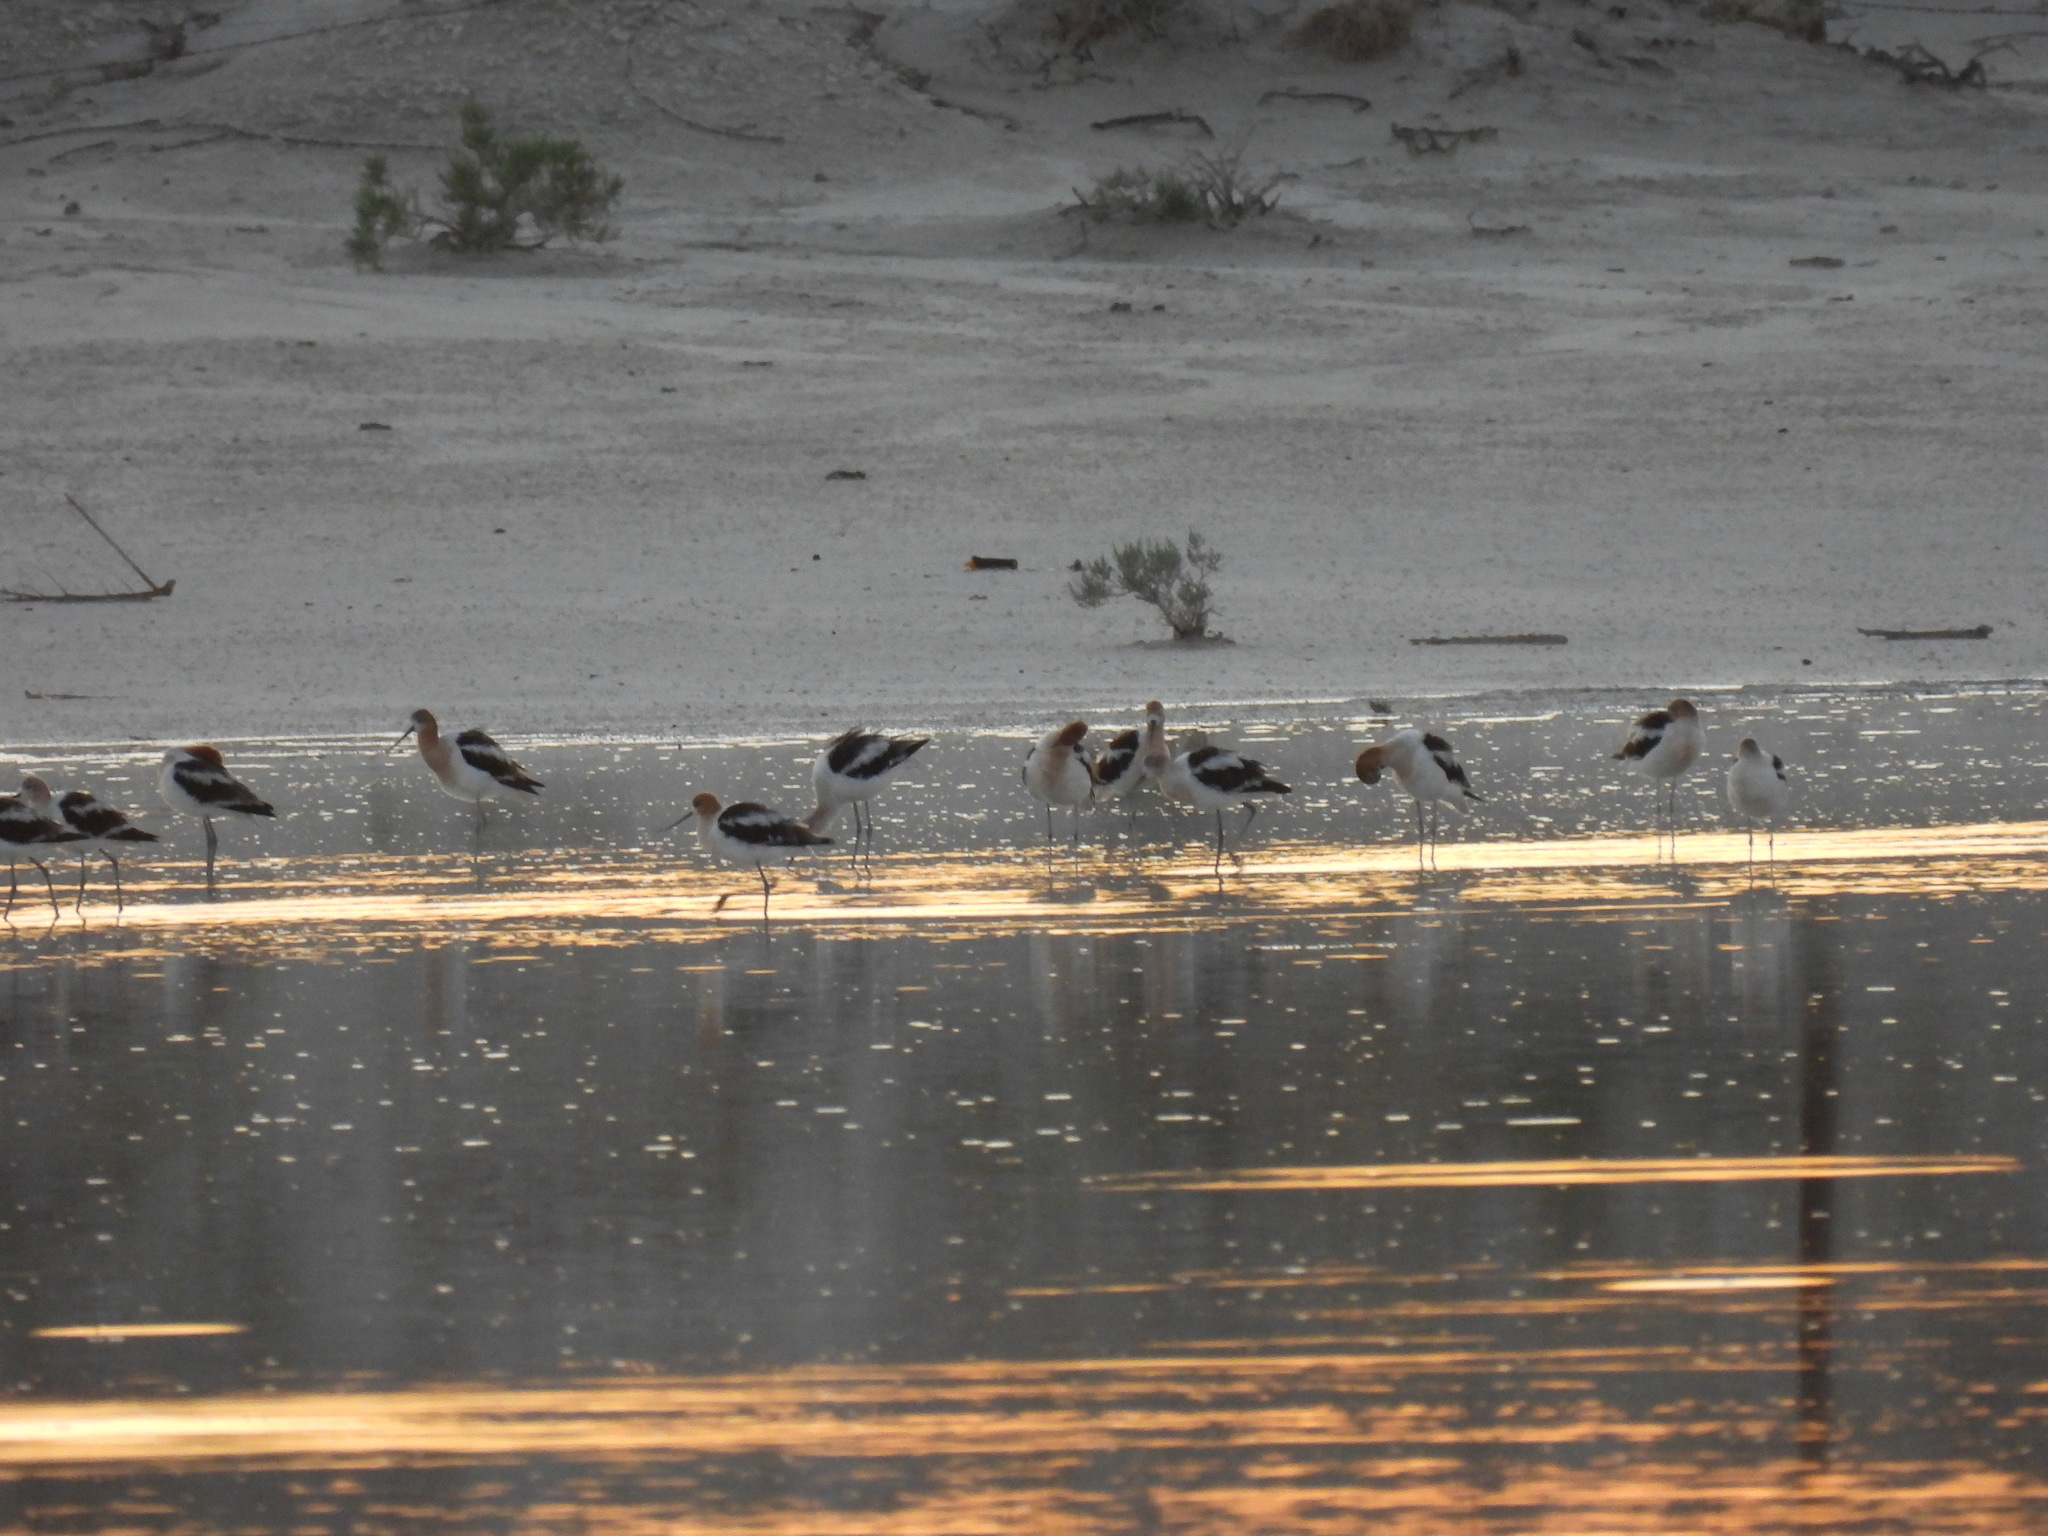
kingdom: Animalia
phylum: Chordata
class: Aves
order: Charadriiformes
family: Recurvirostridae
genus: Recurvirostra
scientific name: Recurvirostra americana
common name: American avocet
